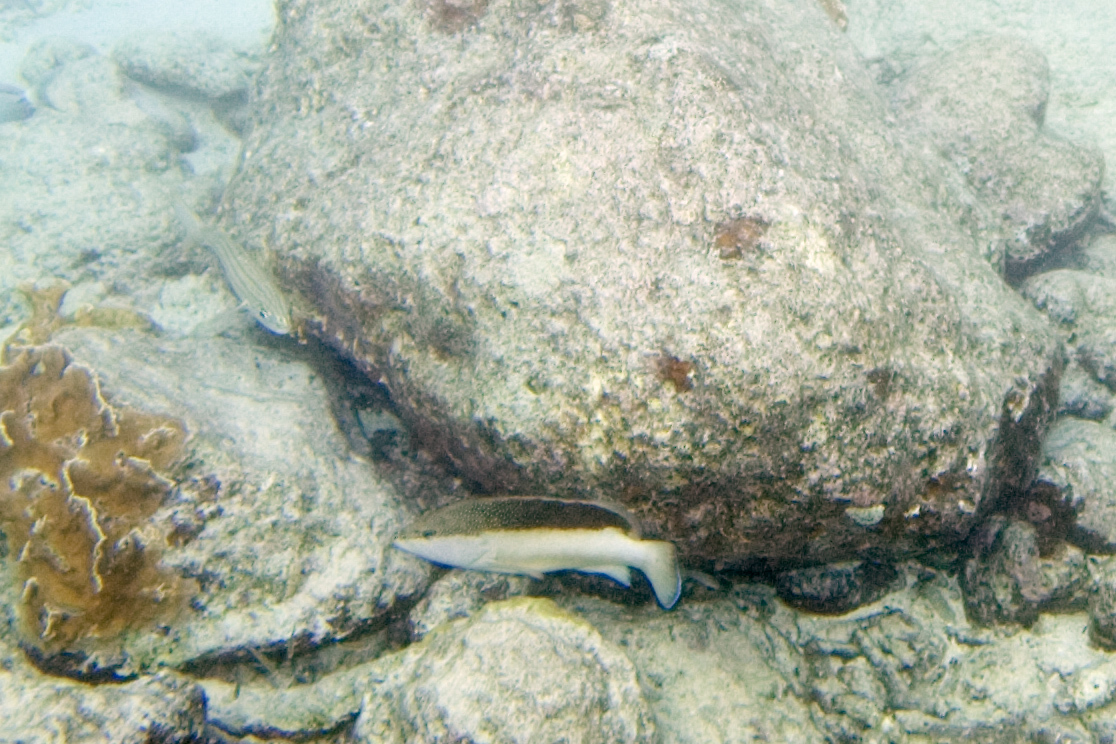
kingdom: Animalia
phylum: Chordata
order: Perciformes
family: Serranidae
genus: Cephalopholis
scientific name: Cephalopholis fulva
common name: Butterfish
